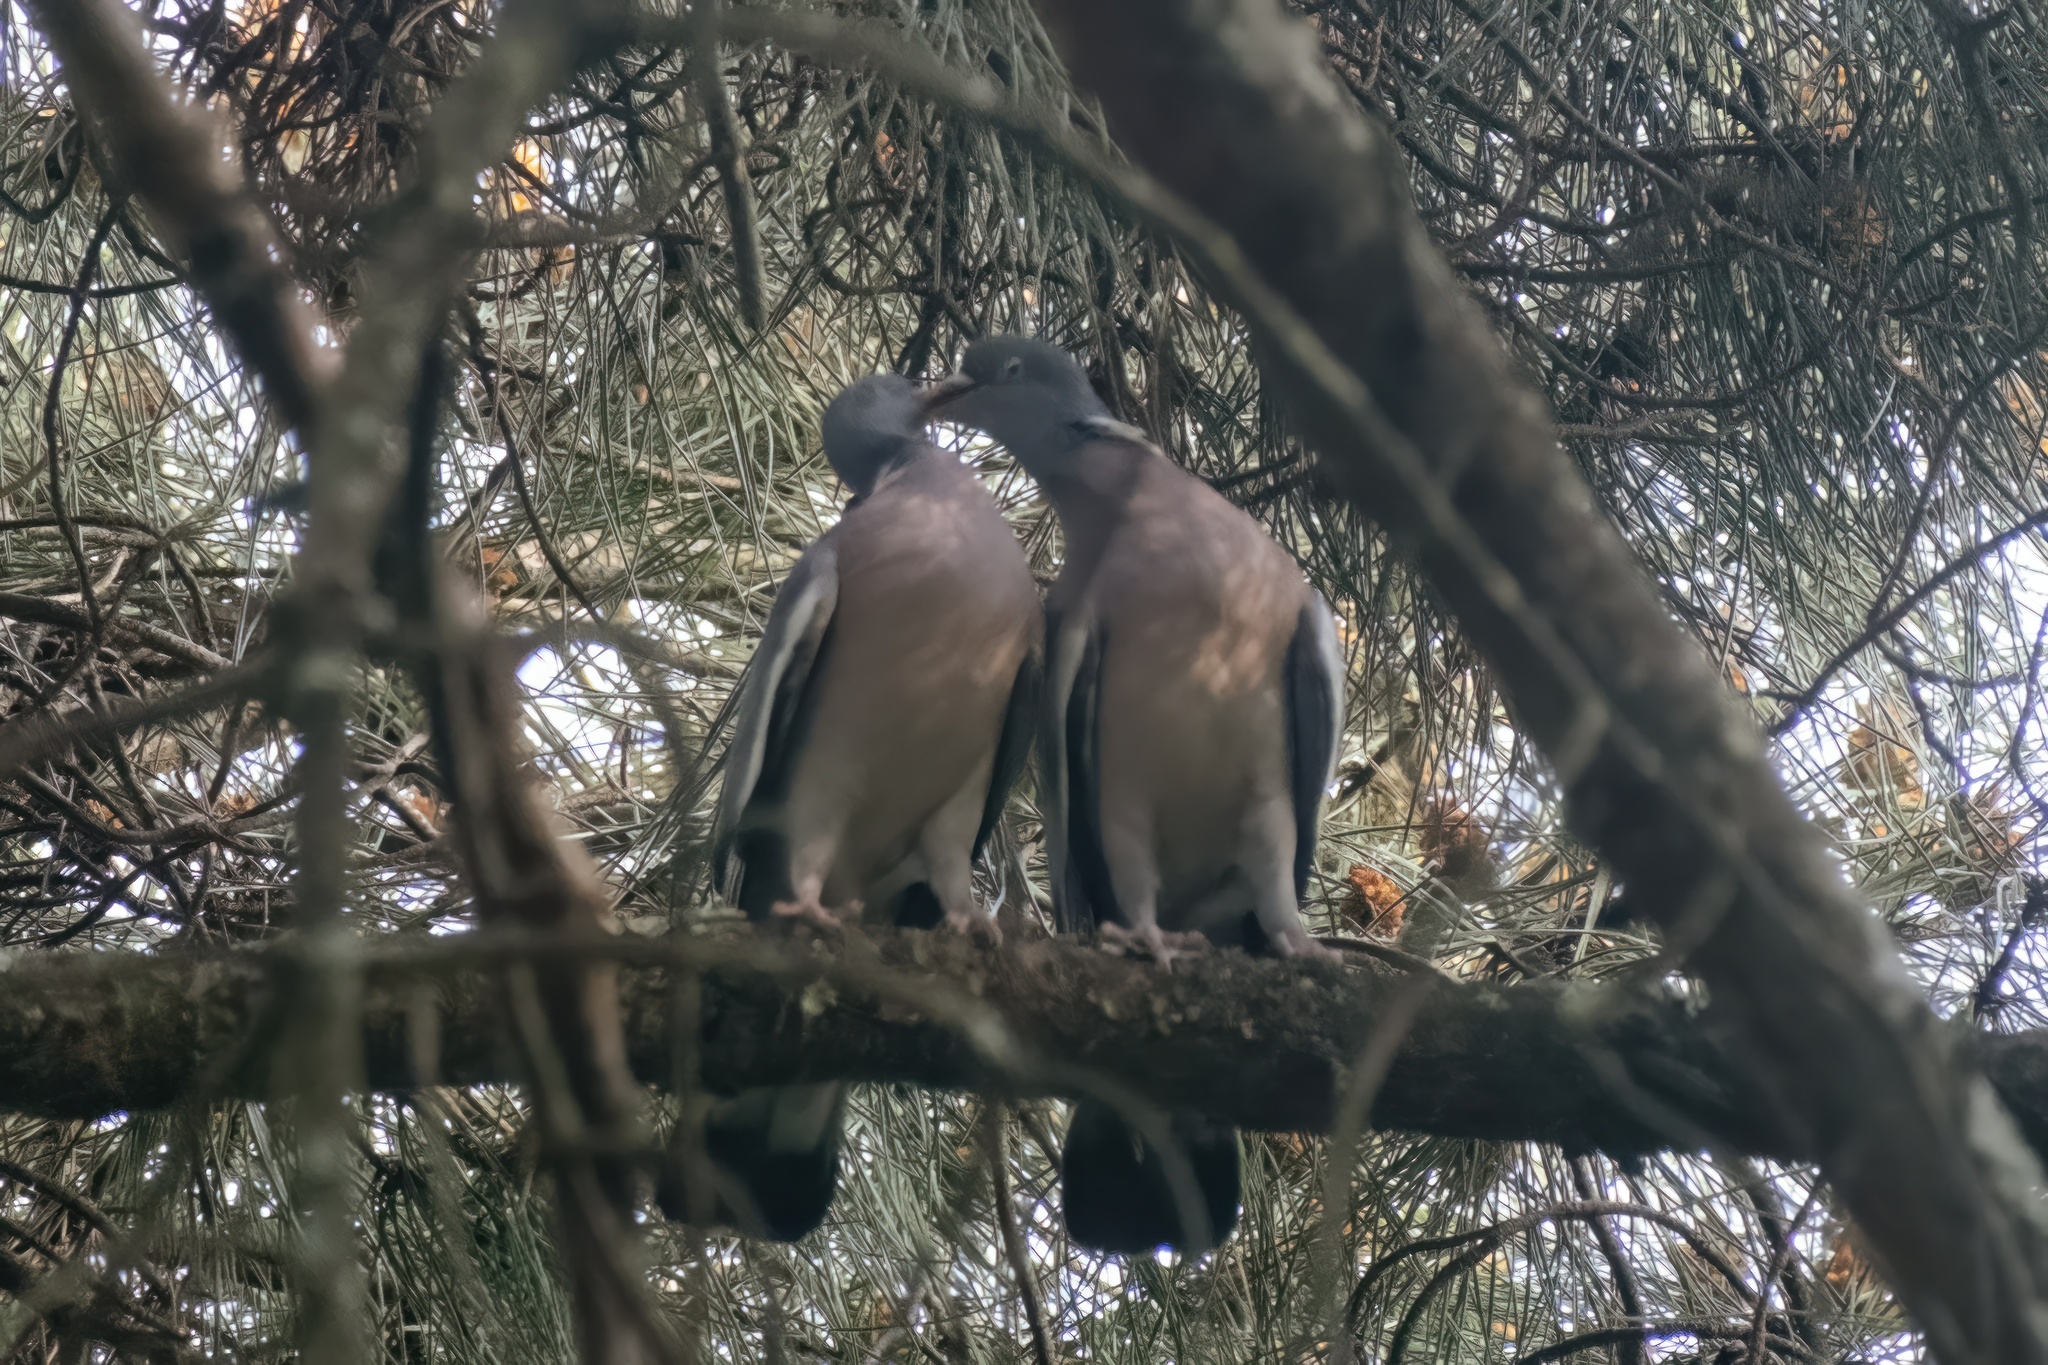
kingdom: Animalia
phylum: Chordata
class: Aves
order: Columbiformes
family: Columbidae
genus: Columba
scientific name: Columba palumbus
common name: Common wood pigeon
